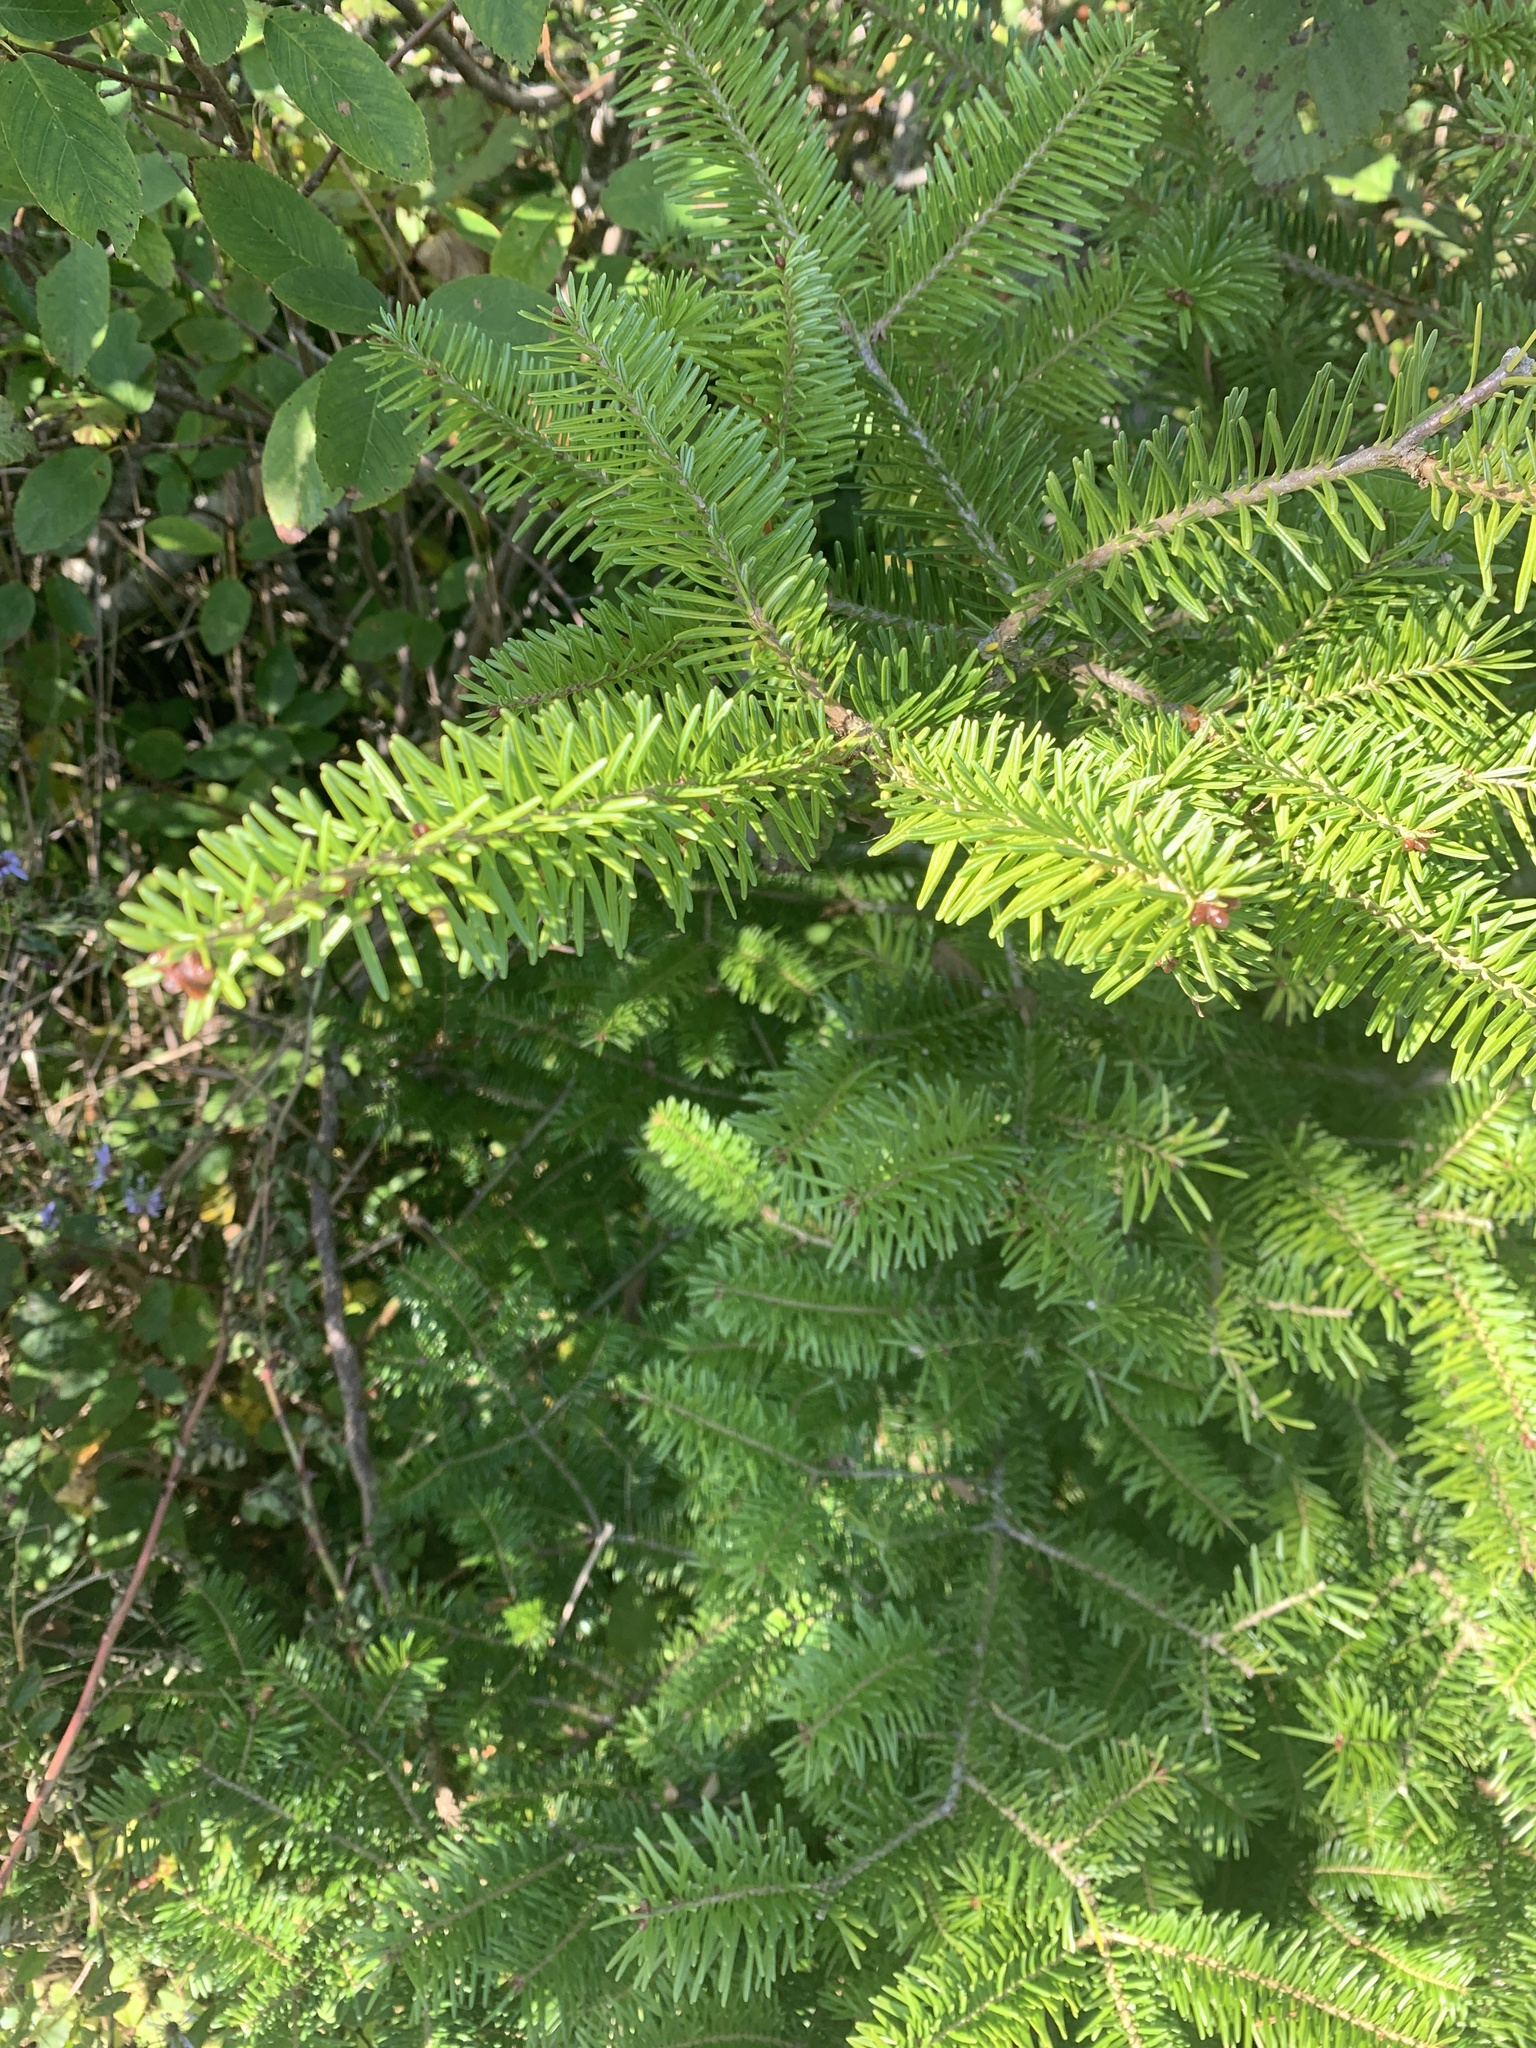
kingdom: Plantae
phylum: Tracheophyta
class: Pinopsida
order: Pinales
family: Pinaceae
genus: Abies
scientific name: Abies balsamea
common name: Balsam fir
